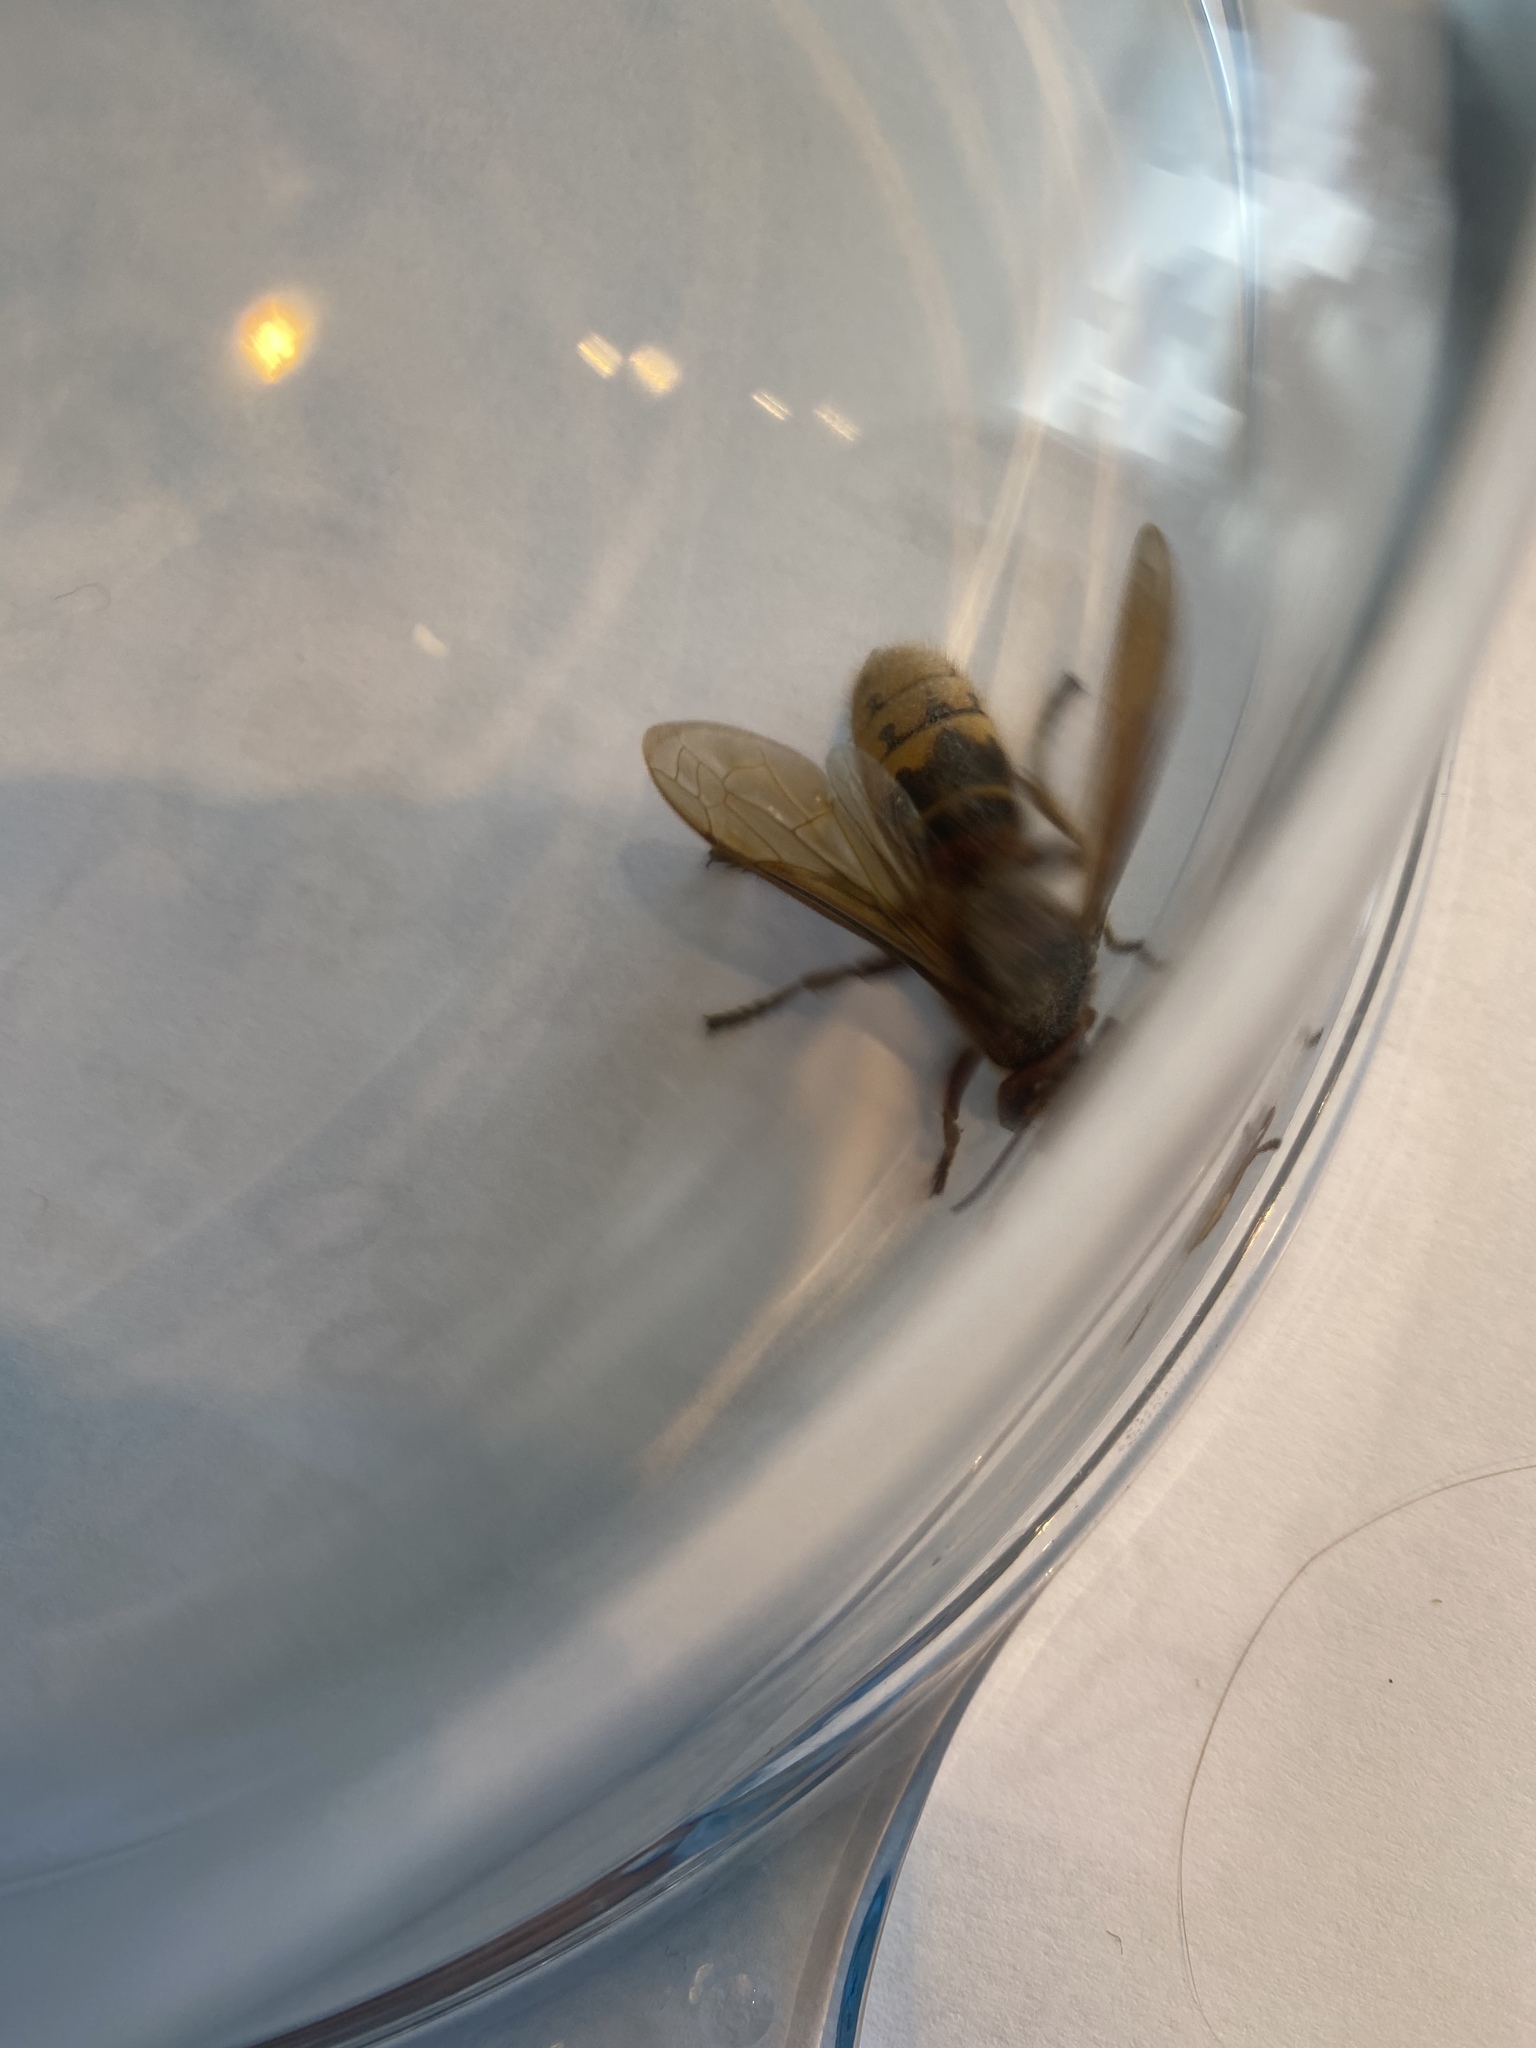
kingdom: Animalia
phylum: Arthropoda
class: Insecta
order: Hymenoptera
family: Vespidae
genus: Vespa
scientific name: Vespa crabro
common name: Hornet
